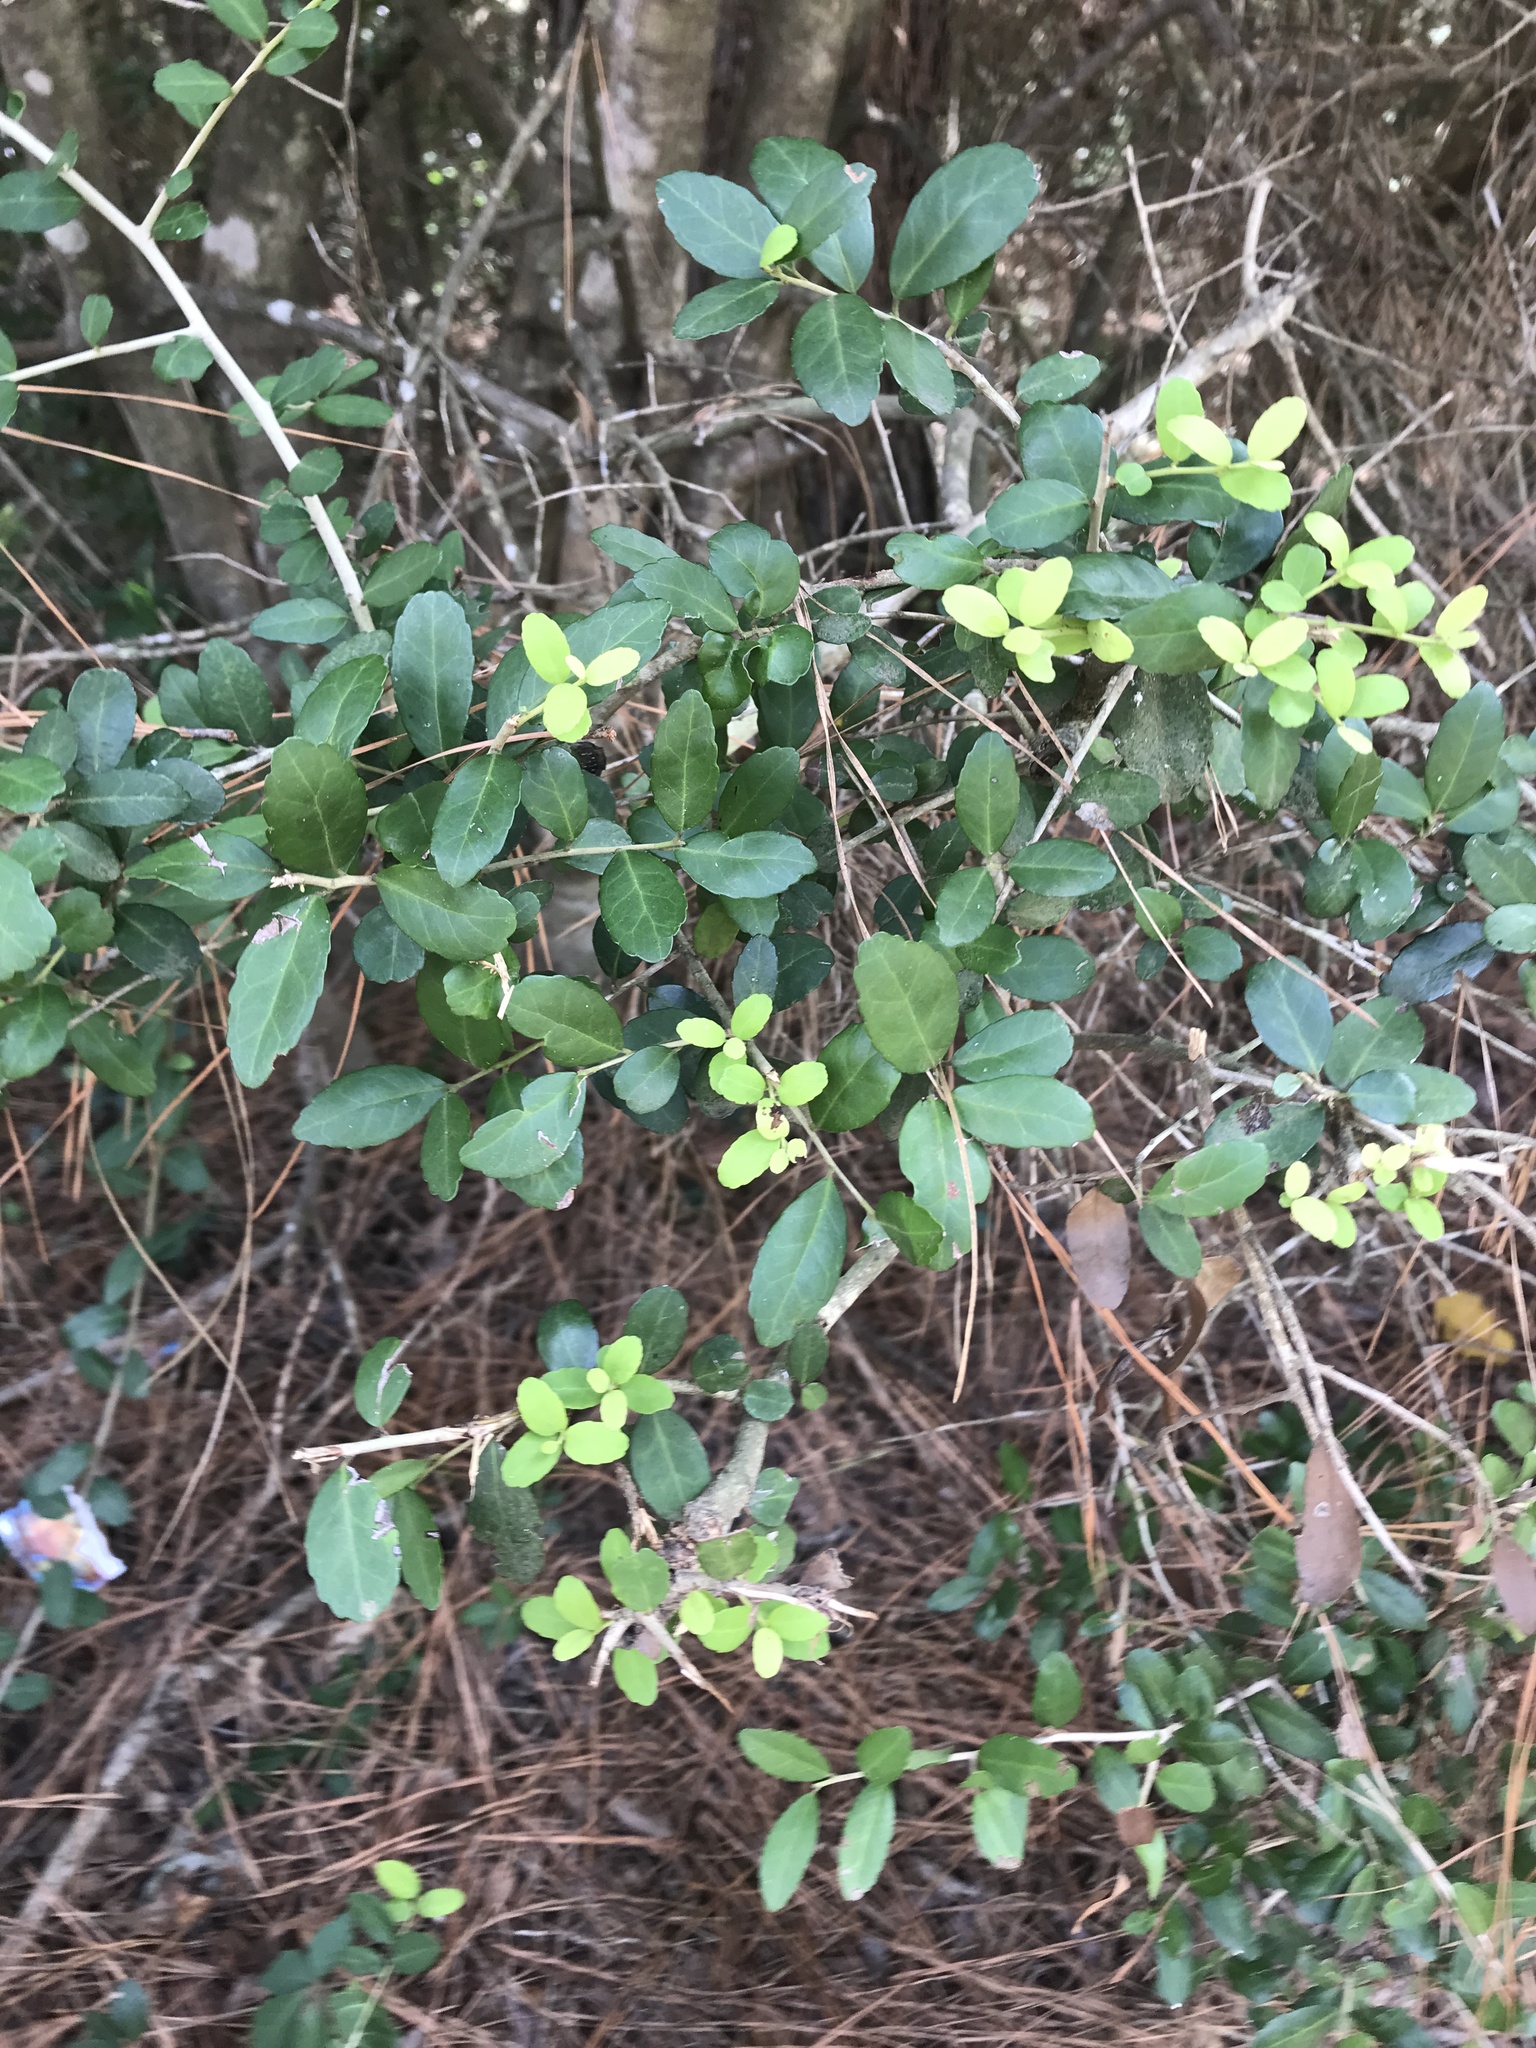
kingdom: Plantae
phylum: Tracheophyta
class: Magnoliopsida
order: Aquifoliales
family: Aquifoliaceae
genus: Ilex
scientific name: Ilex vomitoria
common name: Yaupon holly
